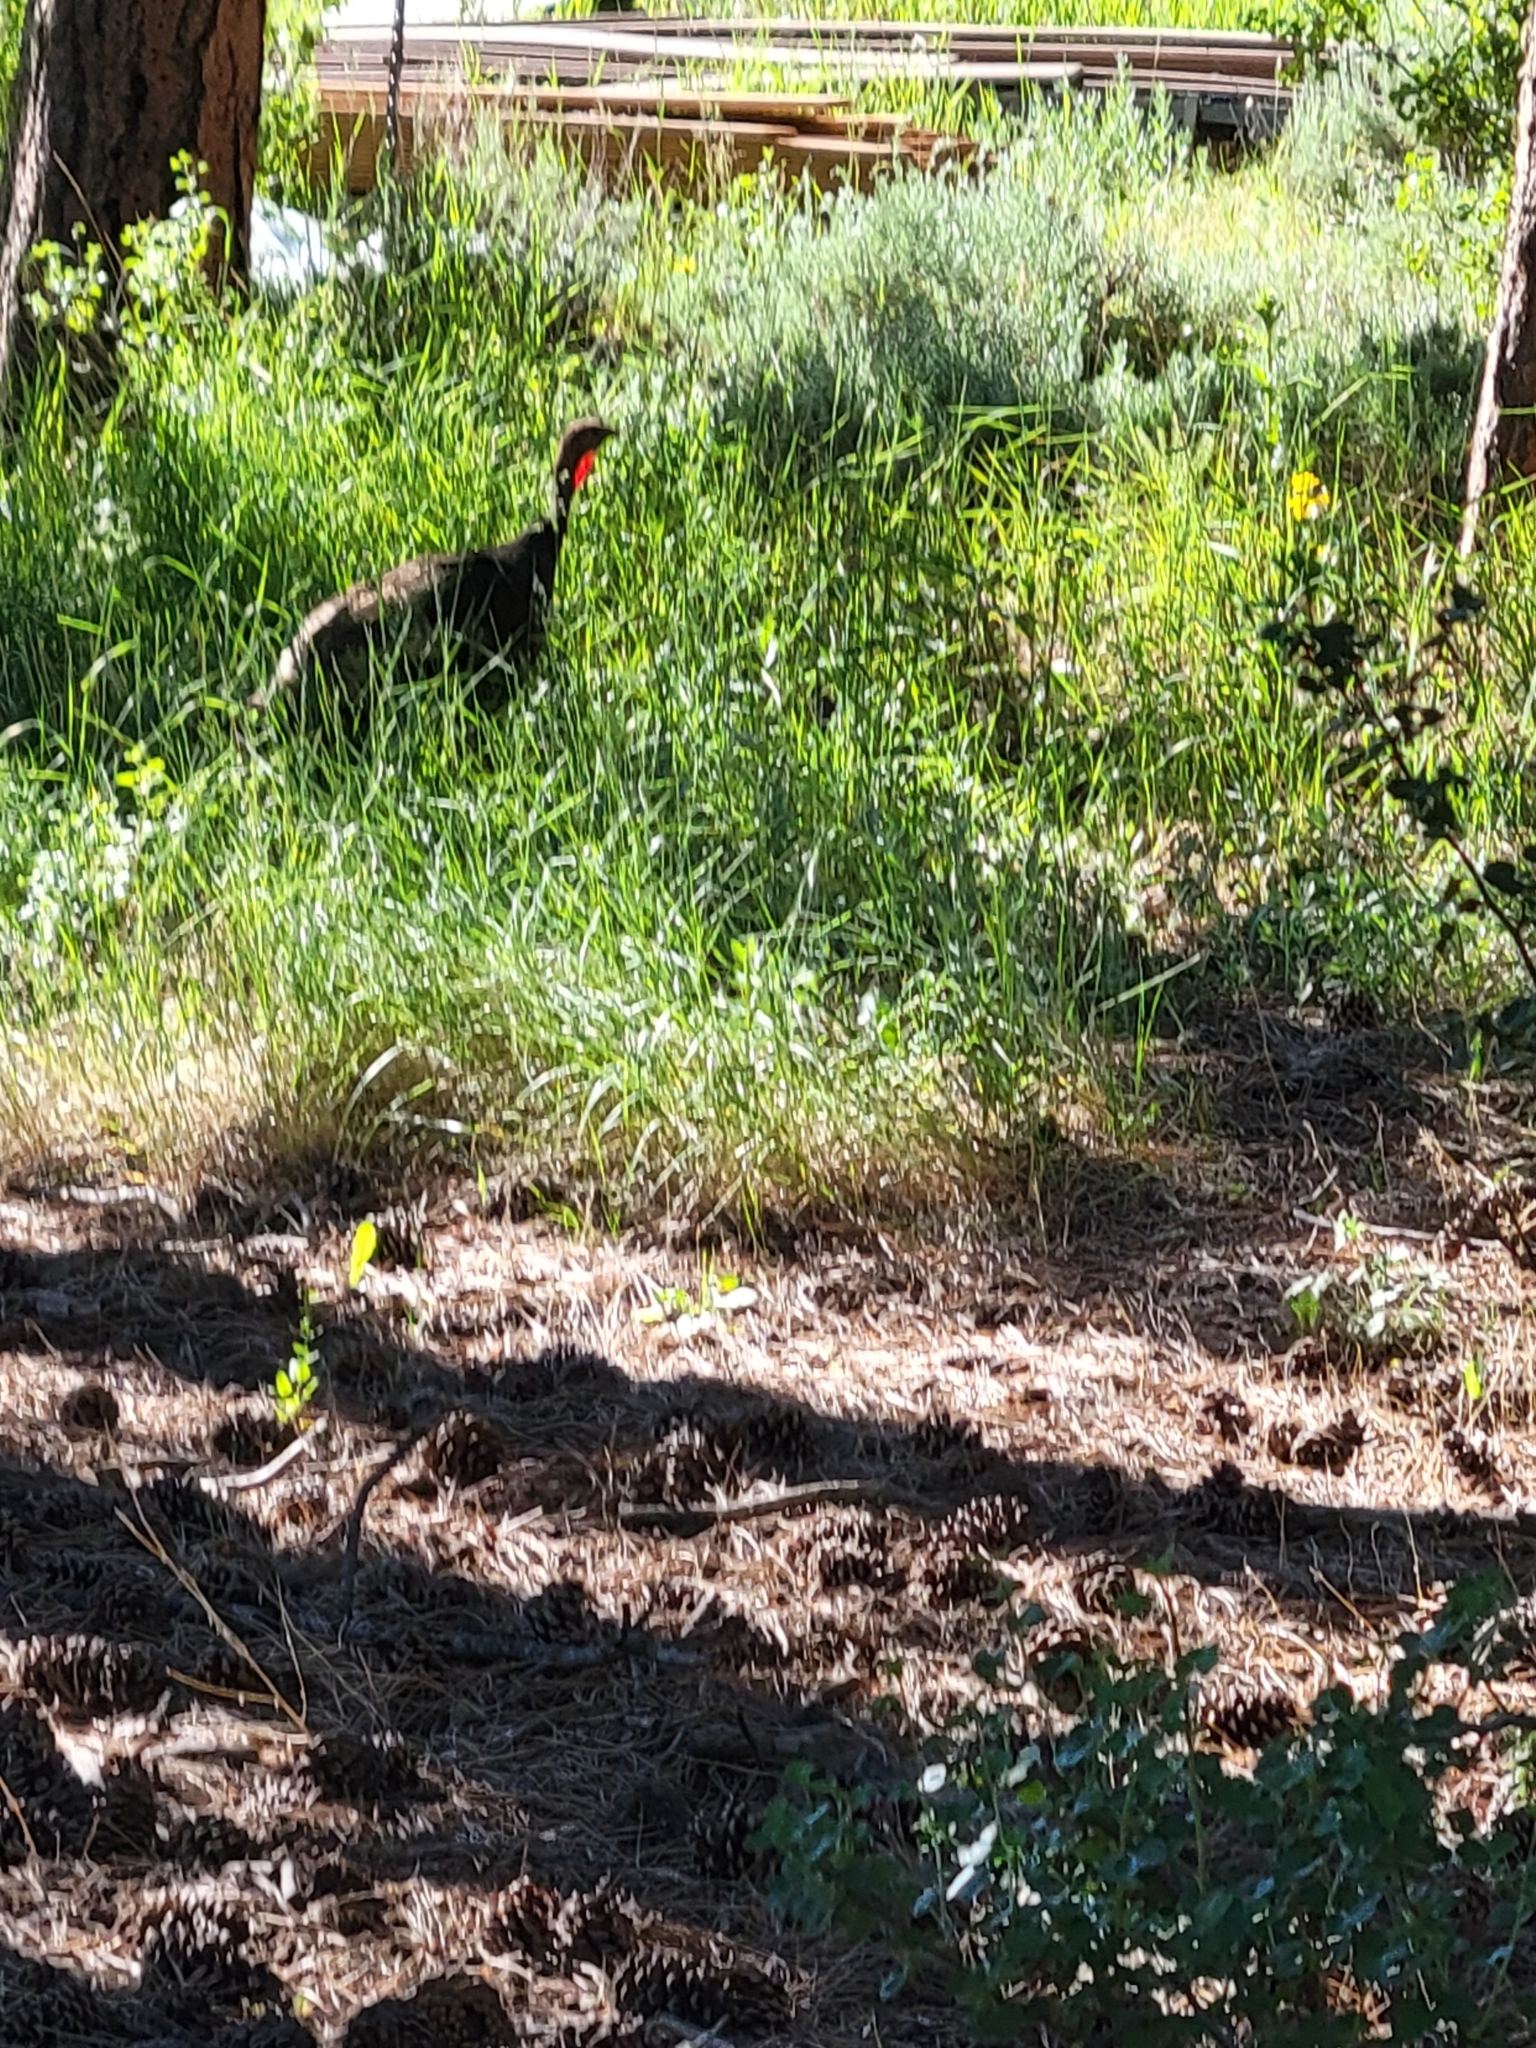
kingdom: Animalia
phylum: Chordata
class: Aves
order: Galliformes
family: Phasianidae
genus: Meleagris
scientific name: Meleagris gallopavo
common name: Wild turkey
